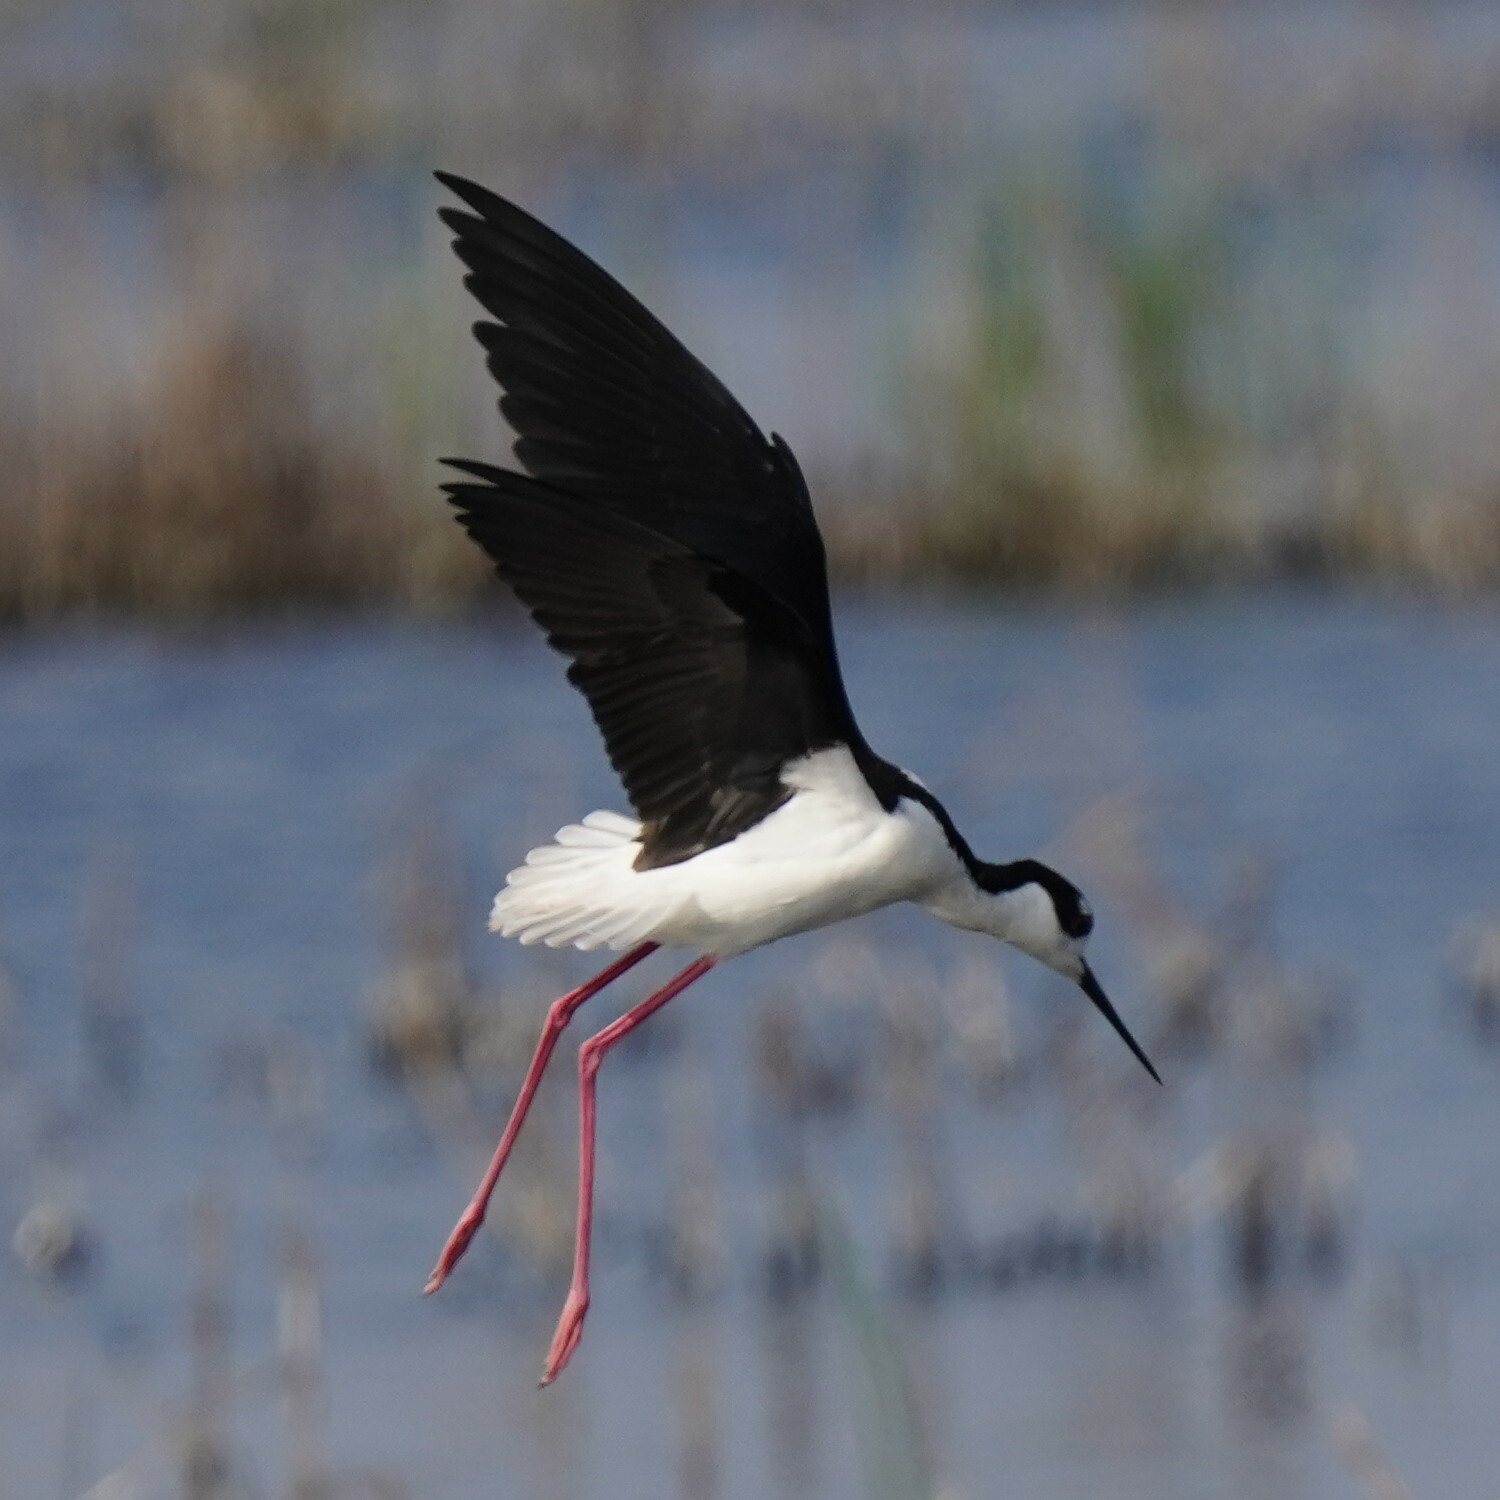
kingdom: Animalia
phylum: Chordata
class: Aves
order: Charadriiformes
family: Recurvirostridae
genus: Himantopus
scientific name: Himantopus mexicanus
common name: Black-necked stilt
